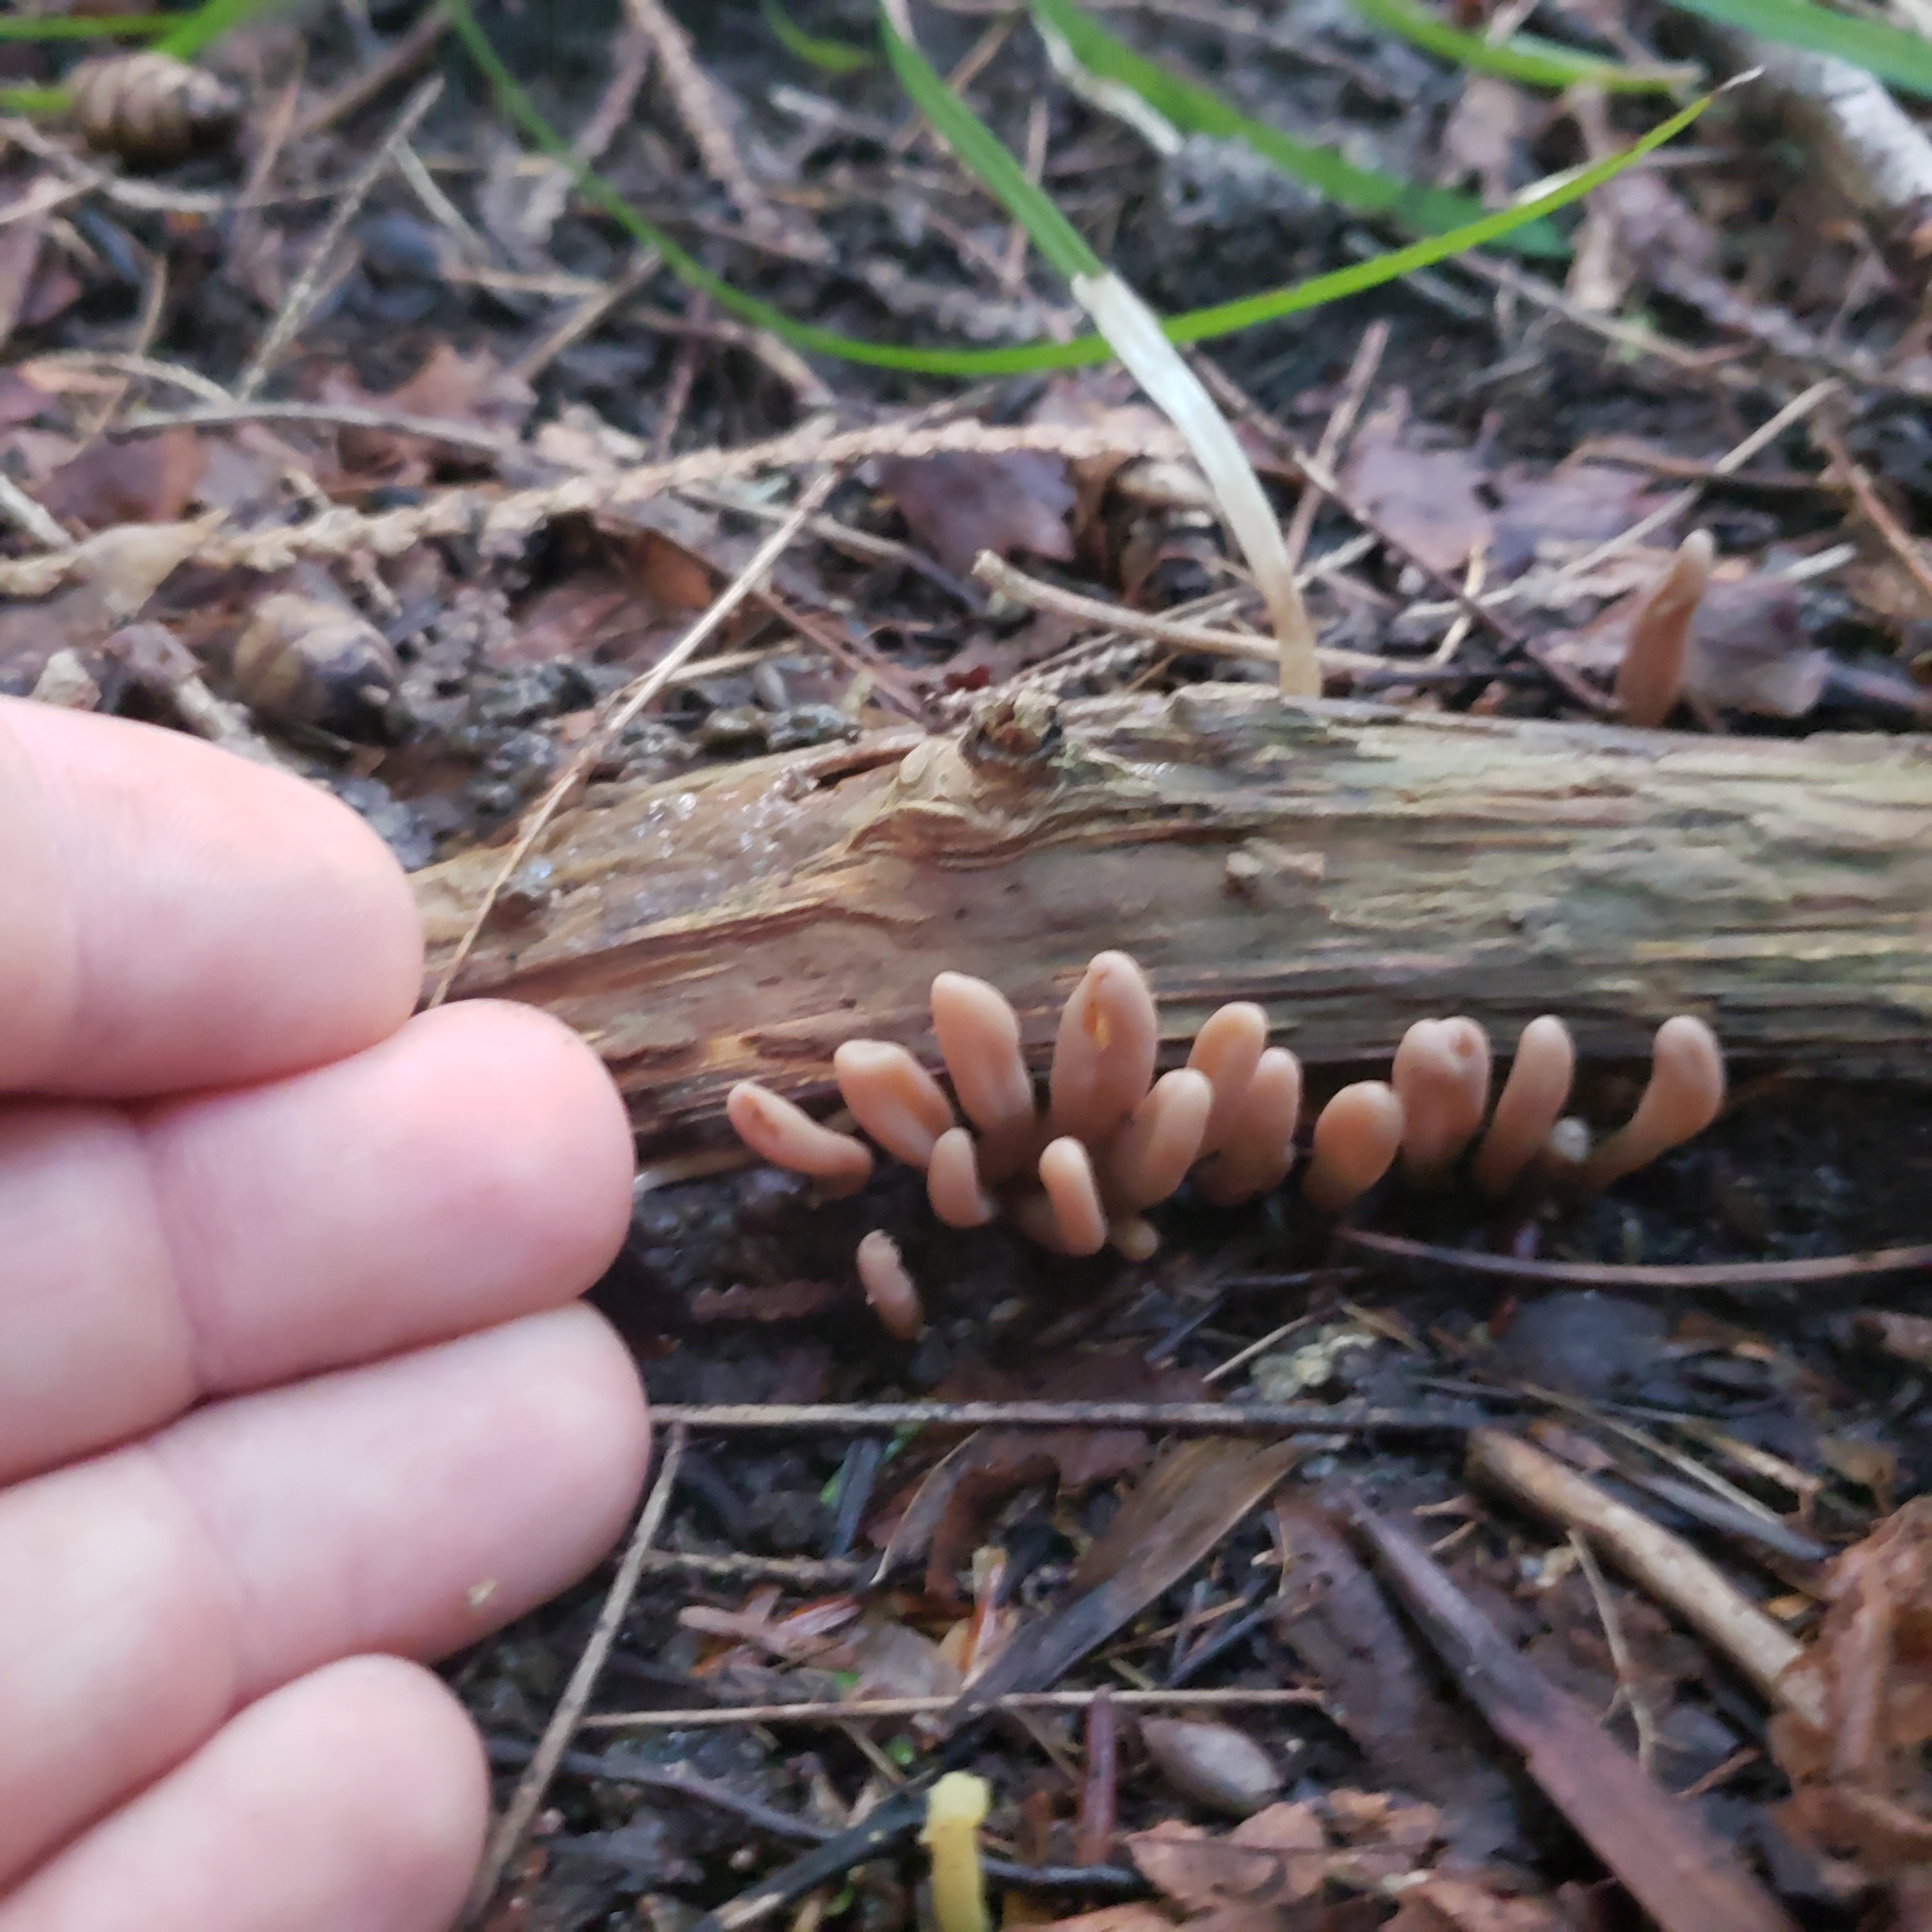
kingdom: Fungi
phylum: Basidiomycota
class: Agaricomycetes
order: Gomphales
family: Clavariadelphaceae
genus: Clavariadelphus
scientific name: Clavariadelphus ligula
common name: Ochre club
